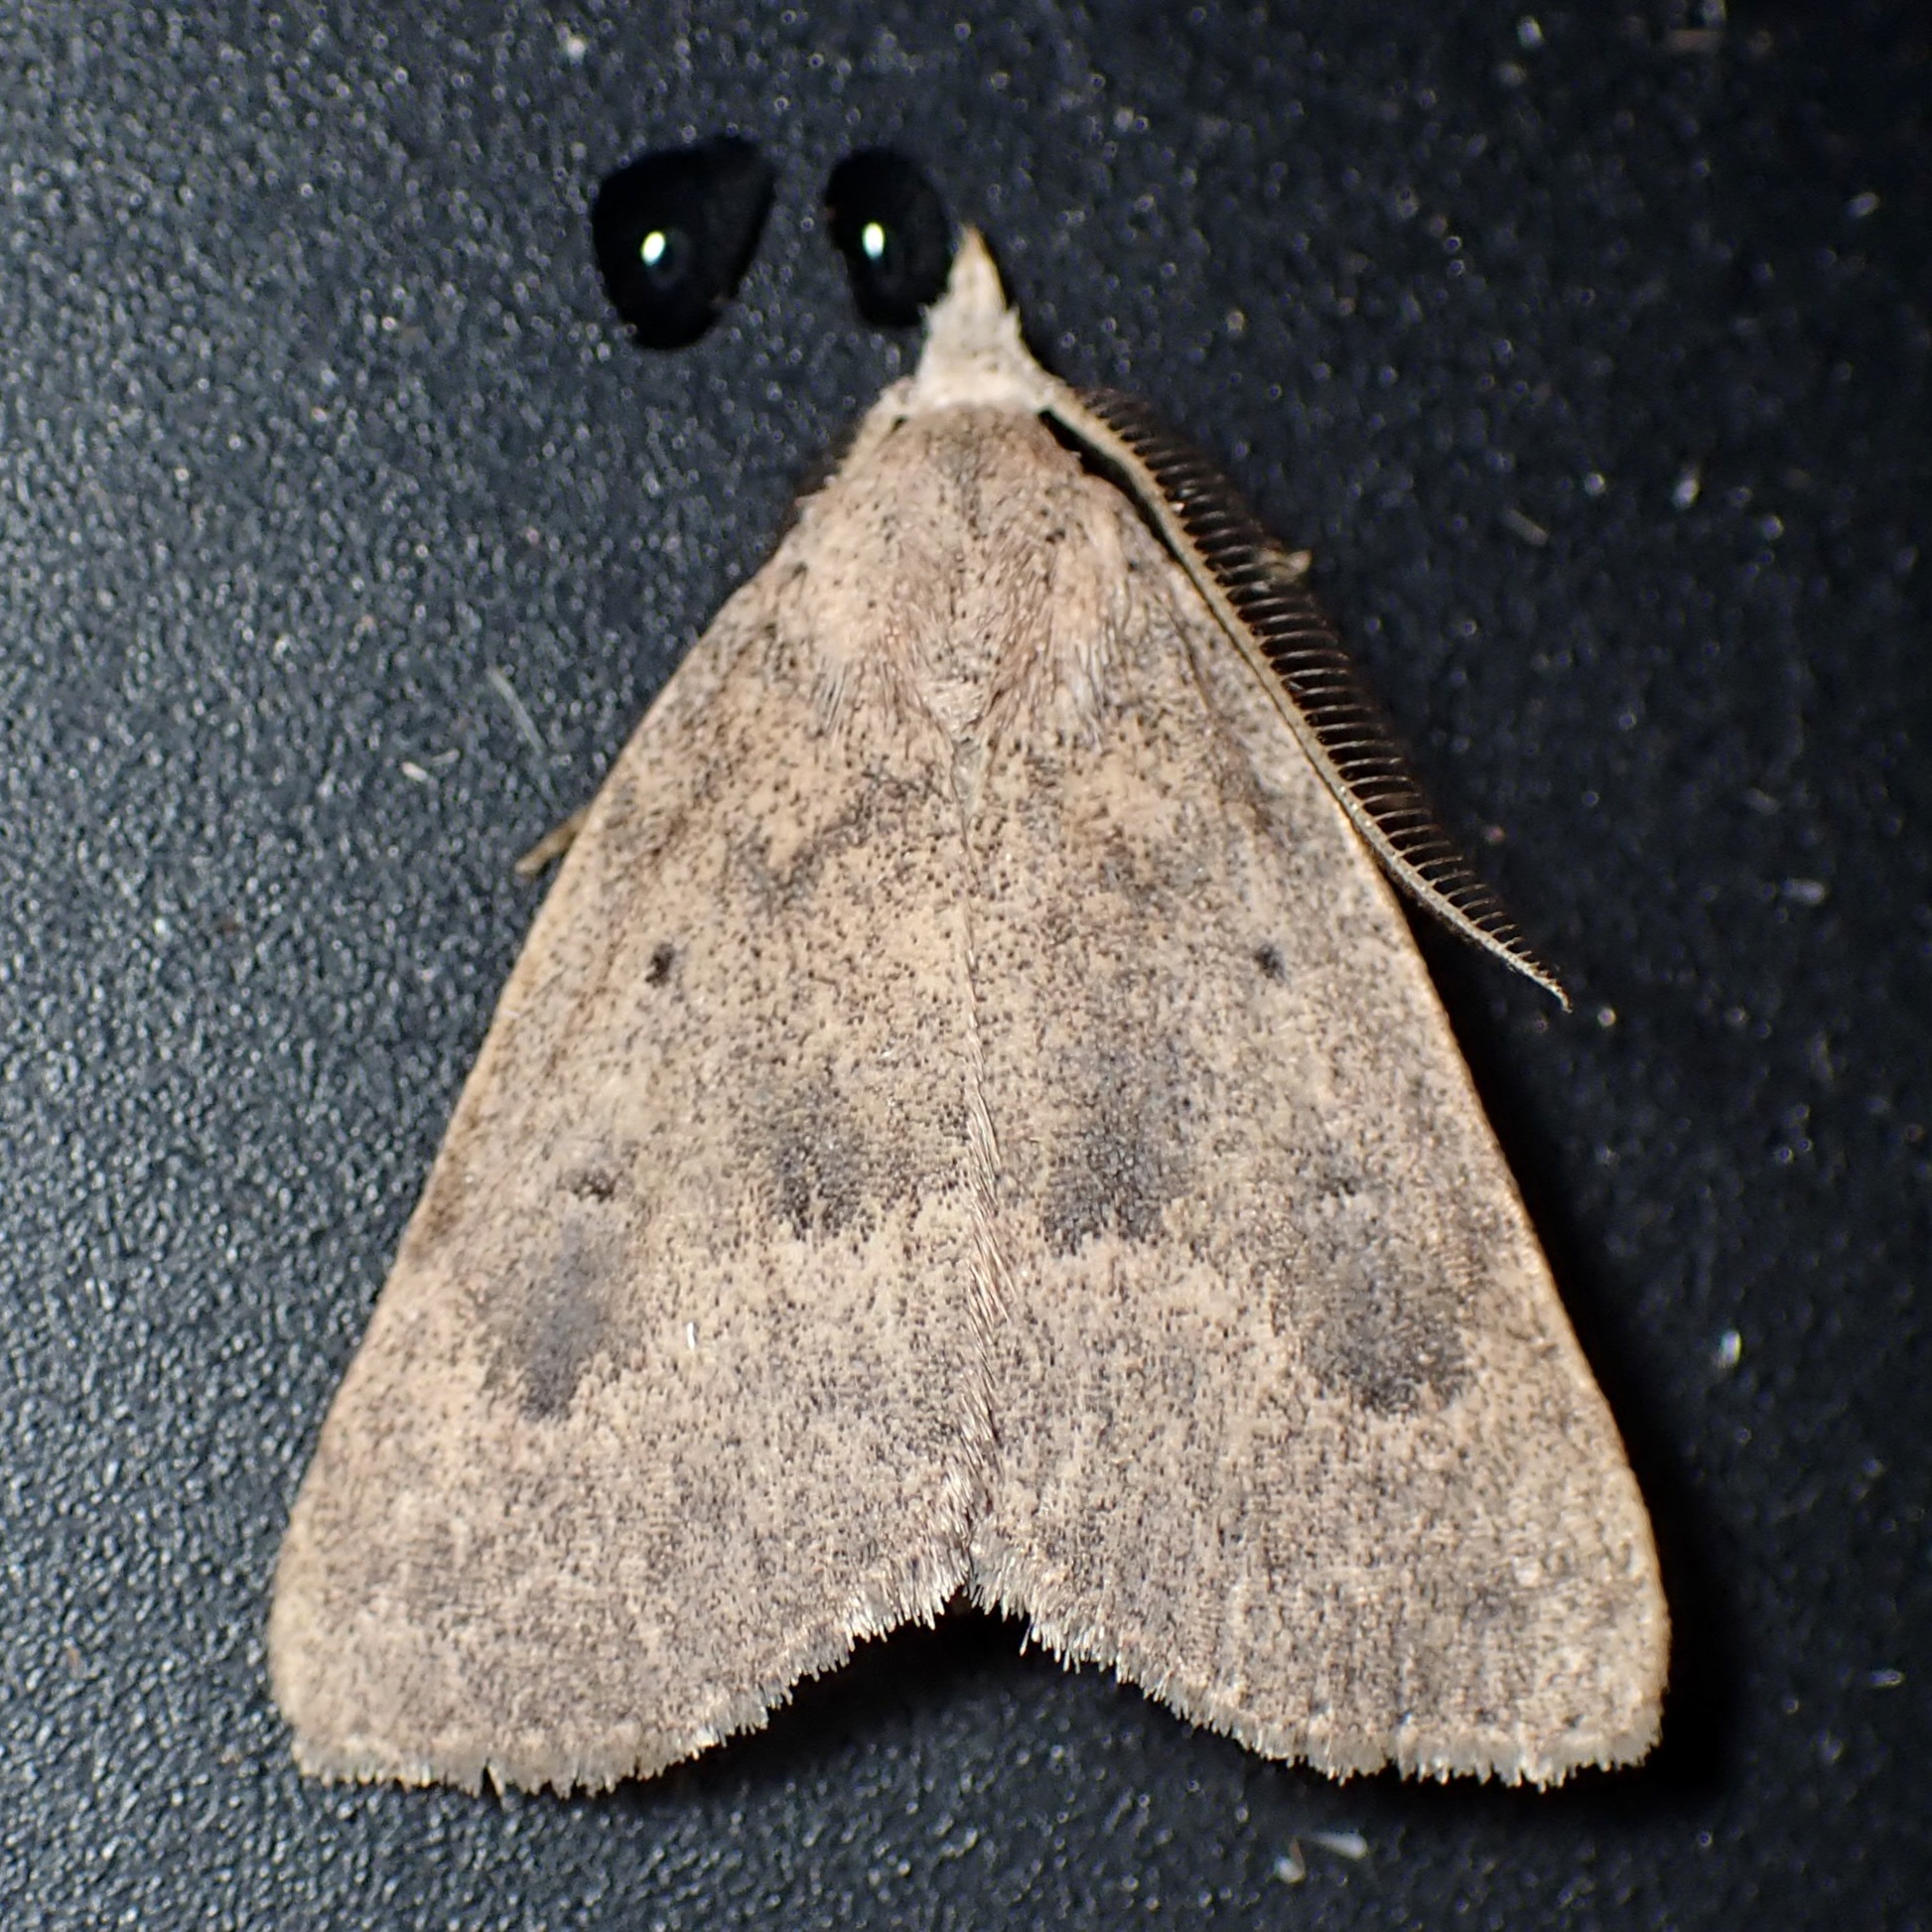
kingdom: Animalia
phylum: Arthropoda
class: Insecta
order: Lepidoptera
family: Erebidae
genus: Pseudorgyia
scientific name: Pseudorgyia russula
